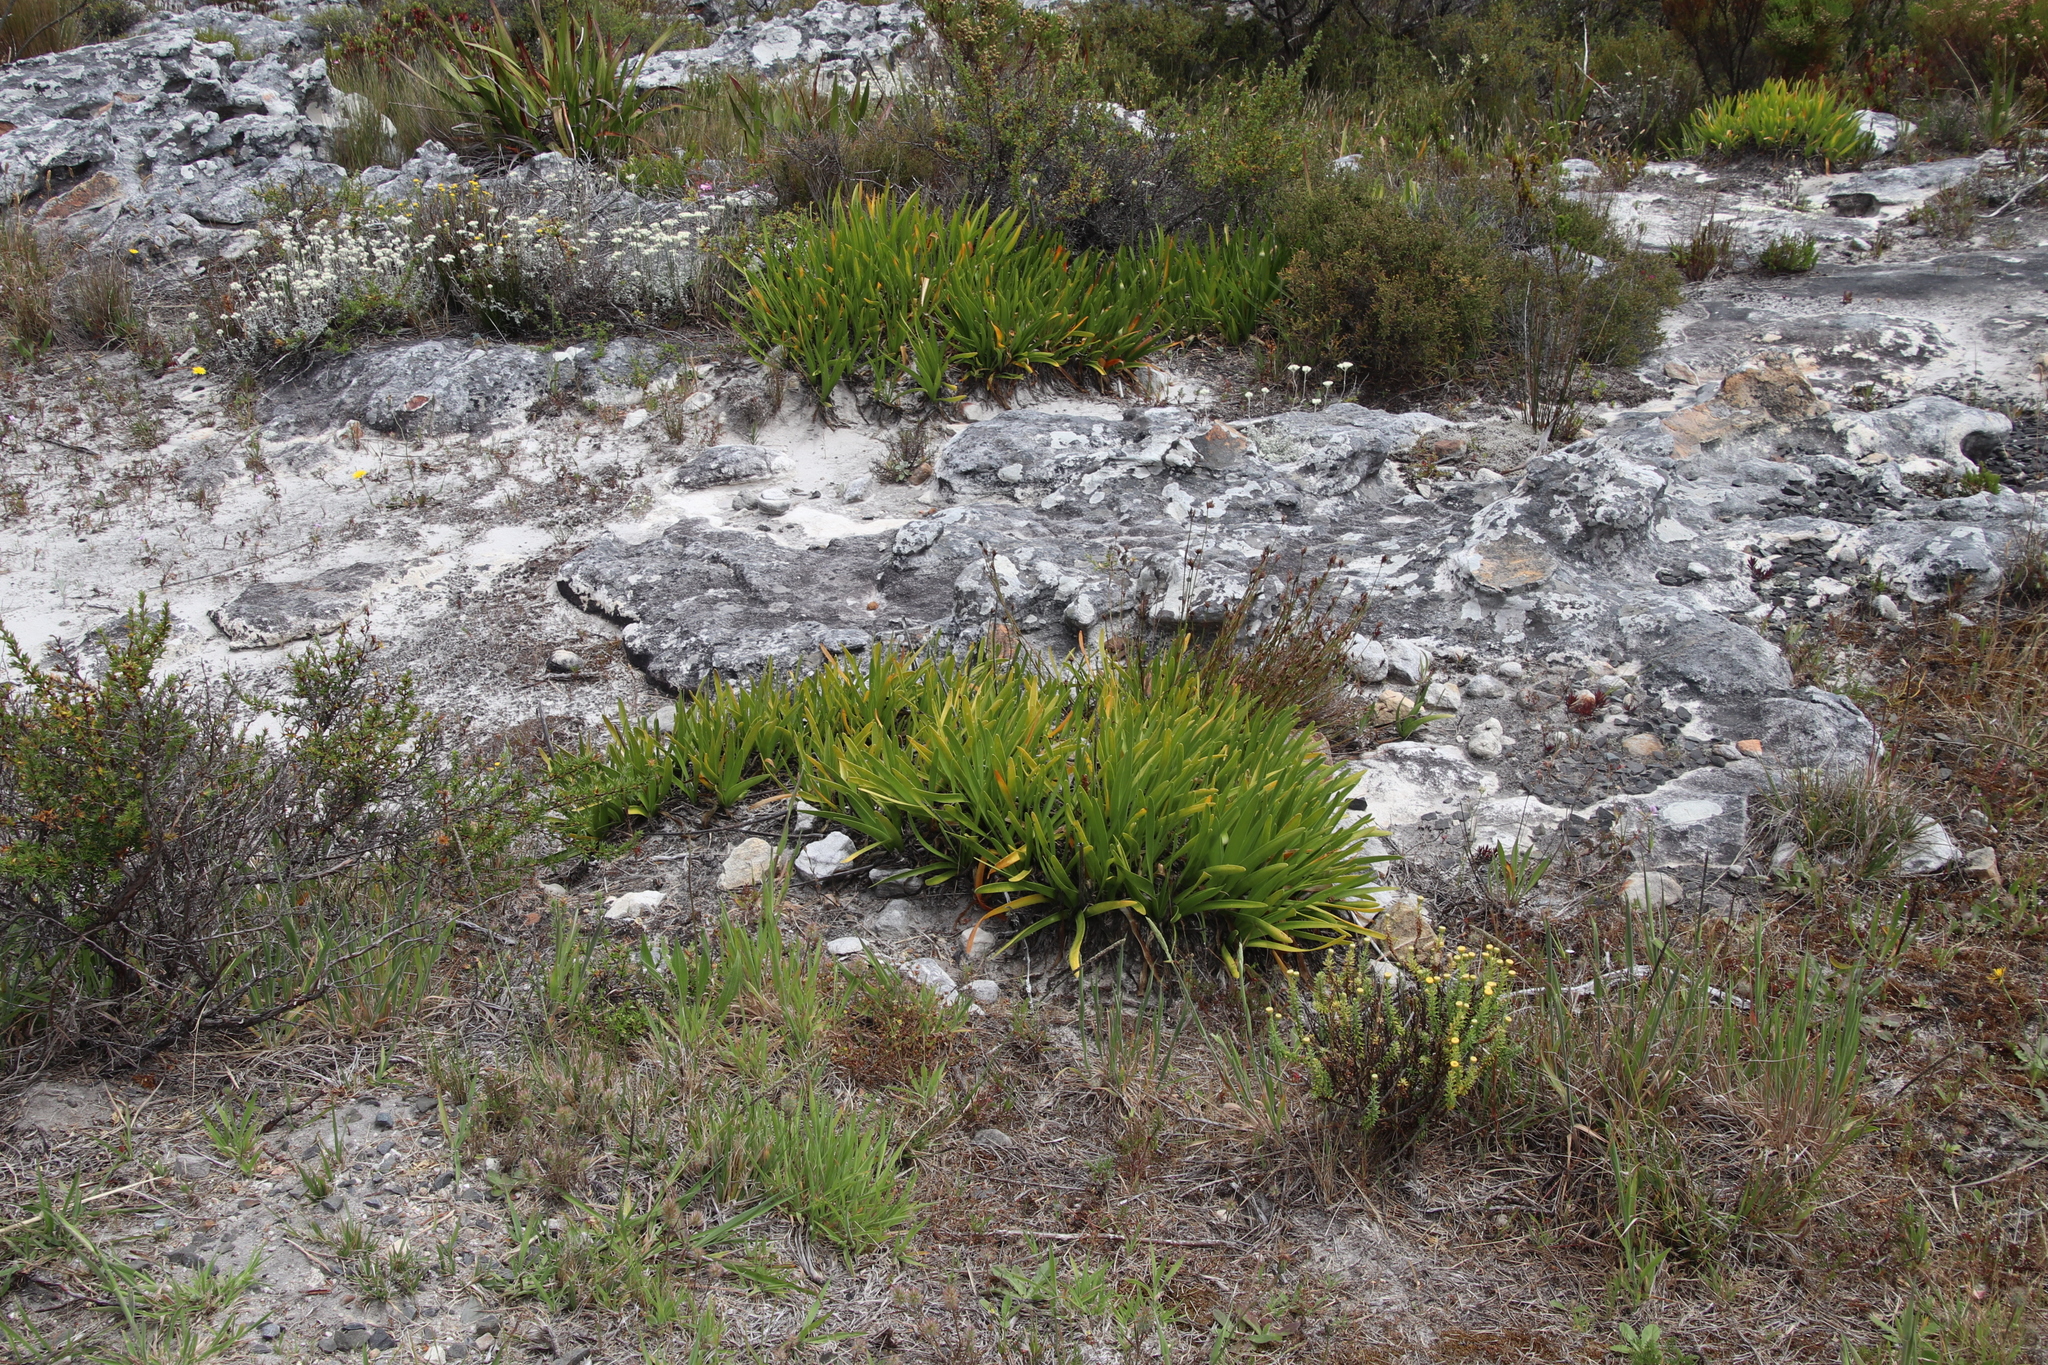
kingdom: Plantae
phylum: Tracheophyta
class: Liliopsida
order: Asparagales
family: Amaryllidaceae
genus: Agapanthus
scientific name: Agapanthus africanus
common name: Lily-of-the-nile
